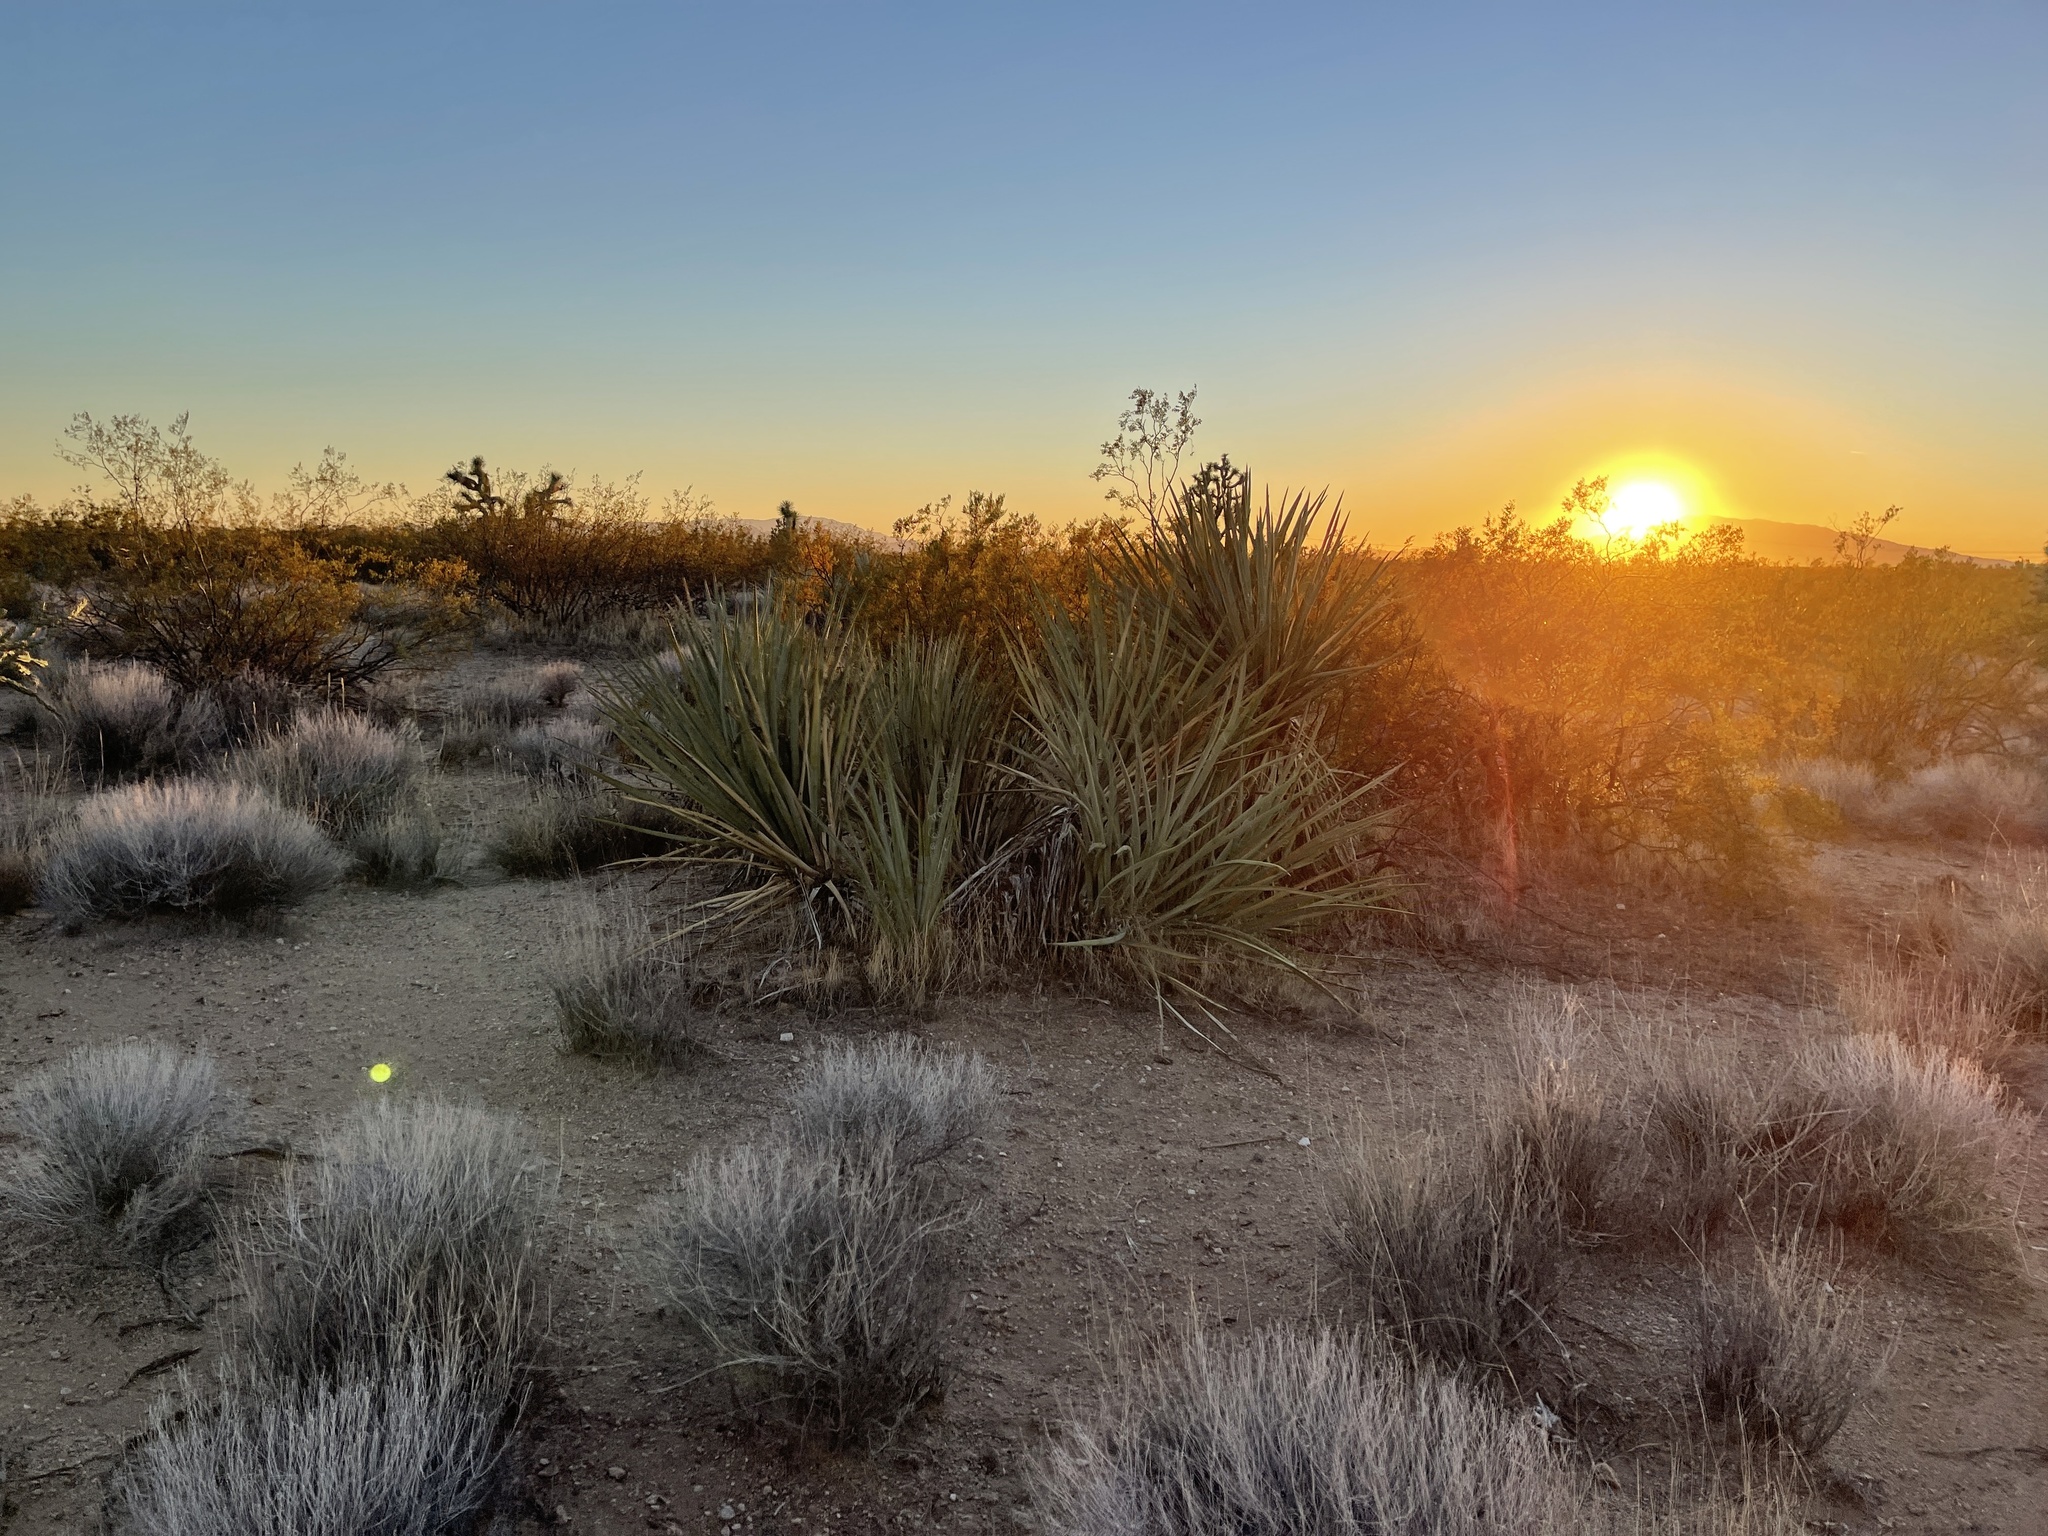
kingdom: Plantae
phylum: Tracheophyta
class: Liliopsida
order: Asparagales
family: Asparagaceae
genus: Yucca
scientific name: Yucca baccata
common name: Banana yucca
